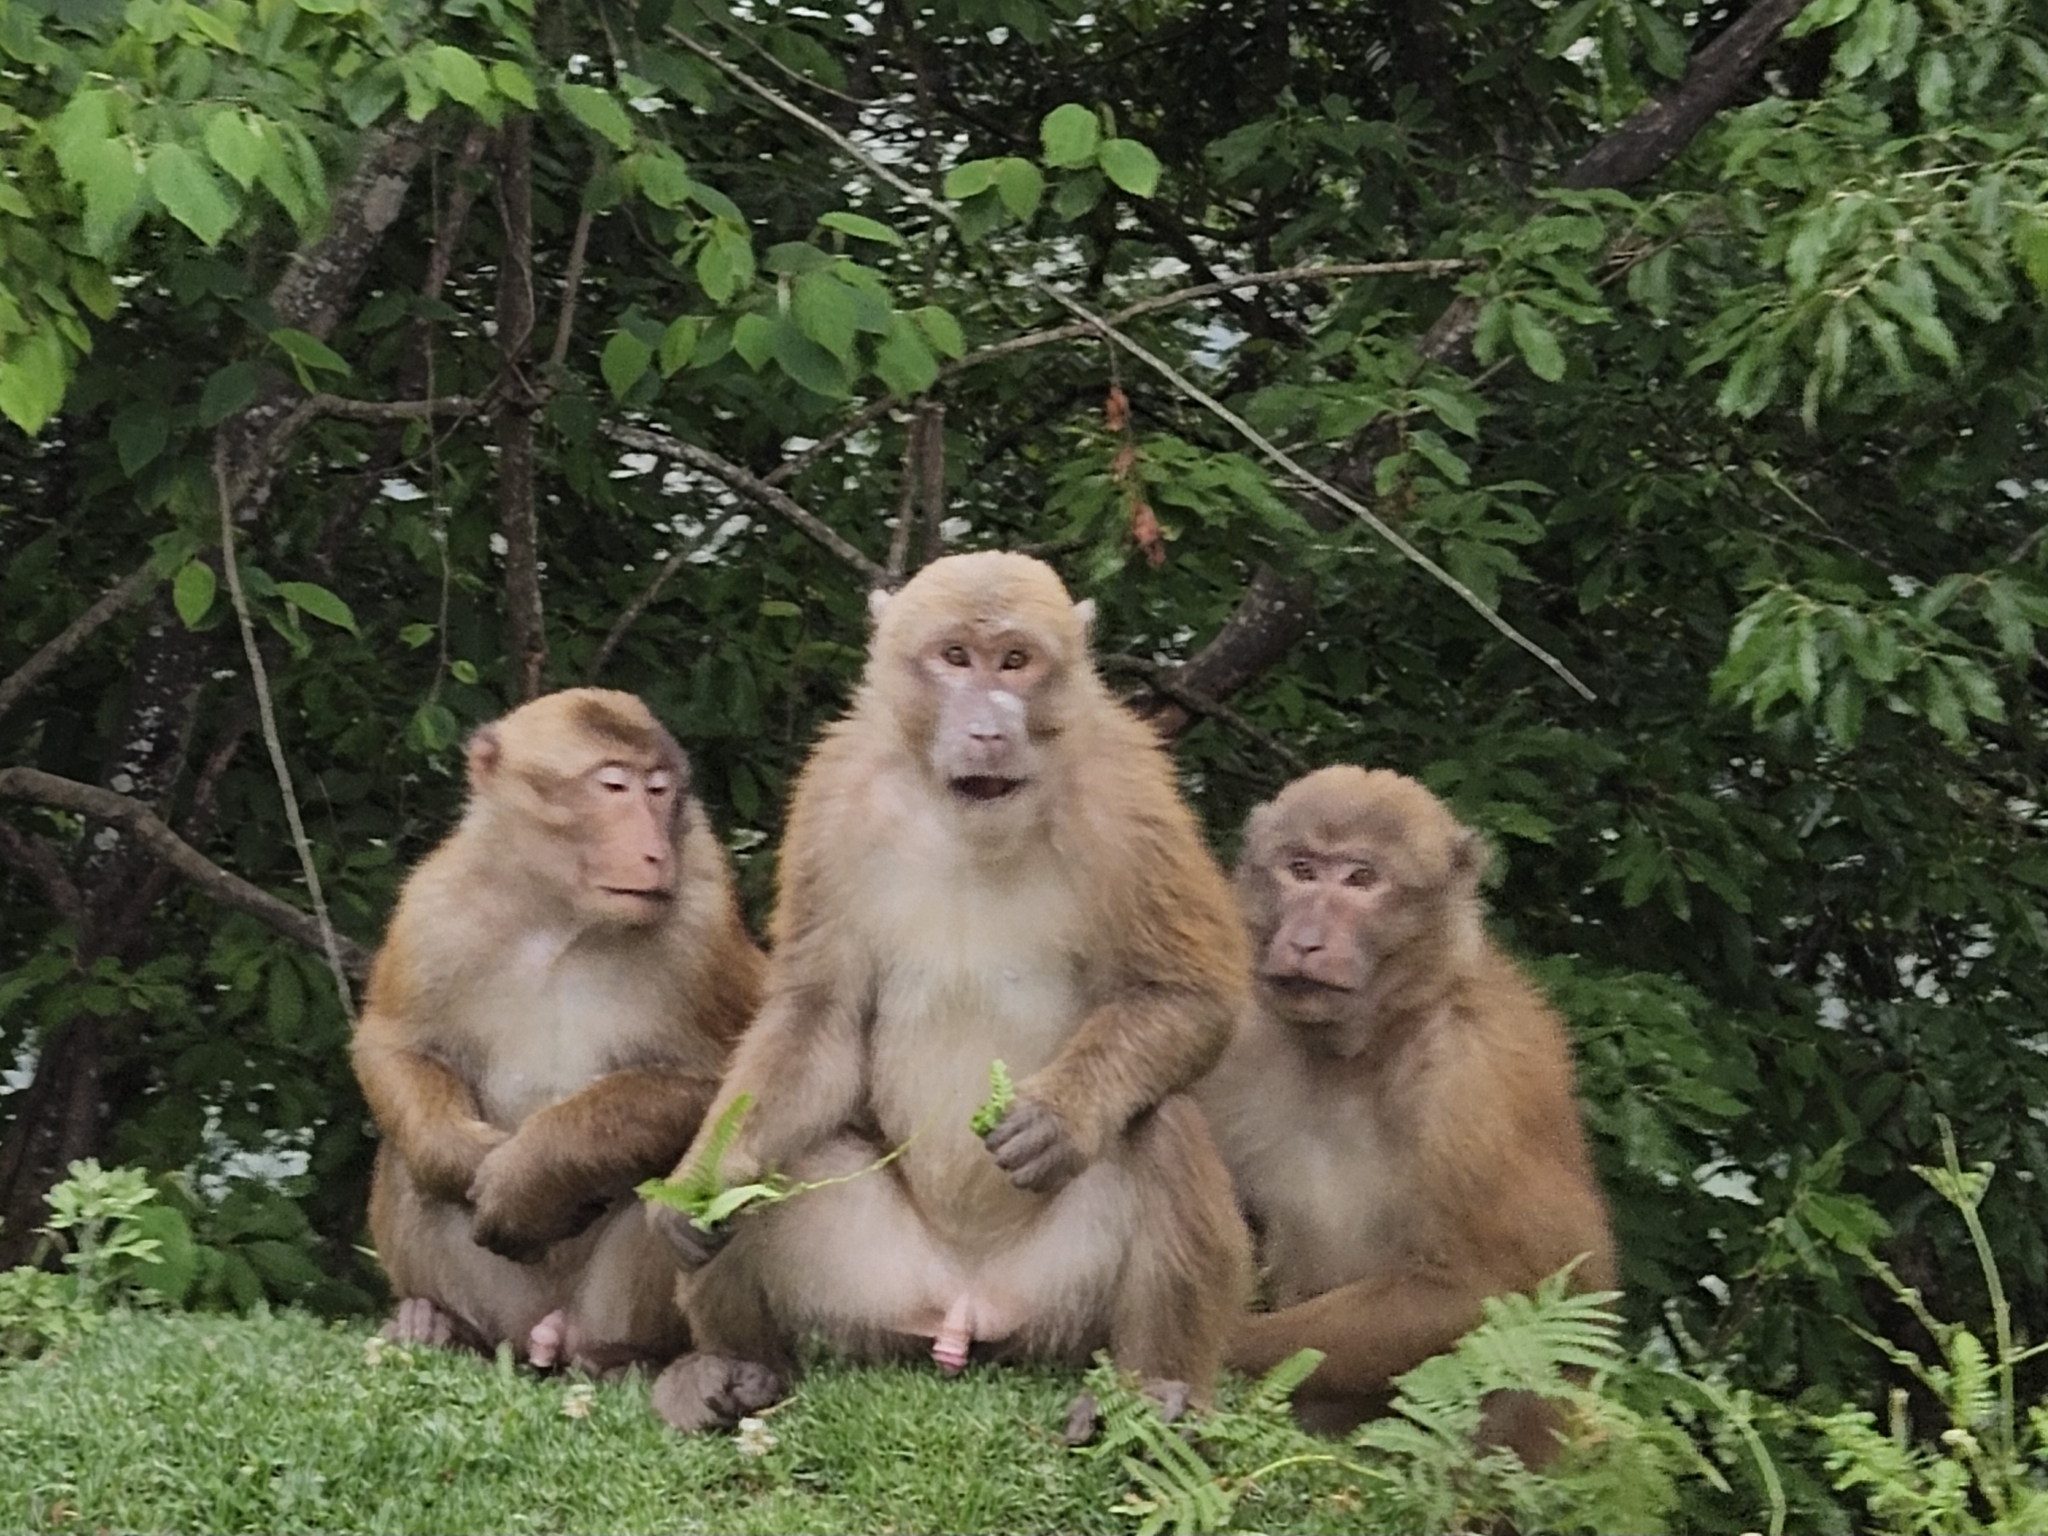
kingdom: Animalia
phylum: Chordata
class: Mammalia
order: Primates
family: Cercopithecidae
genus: Macaca
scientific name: Macaca assamensis
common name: Assam macaque
